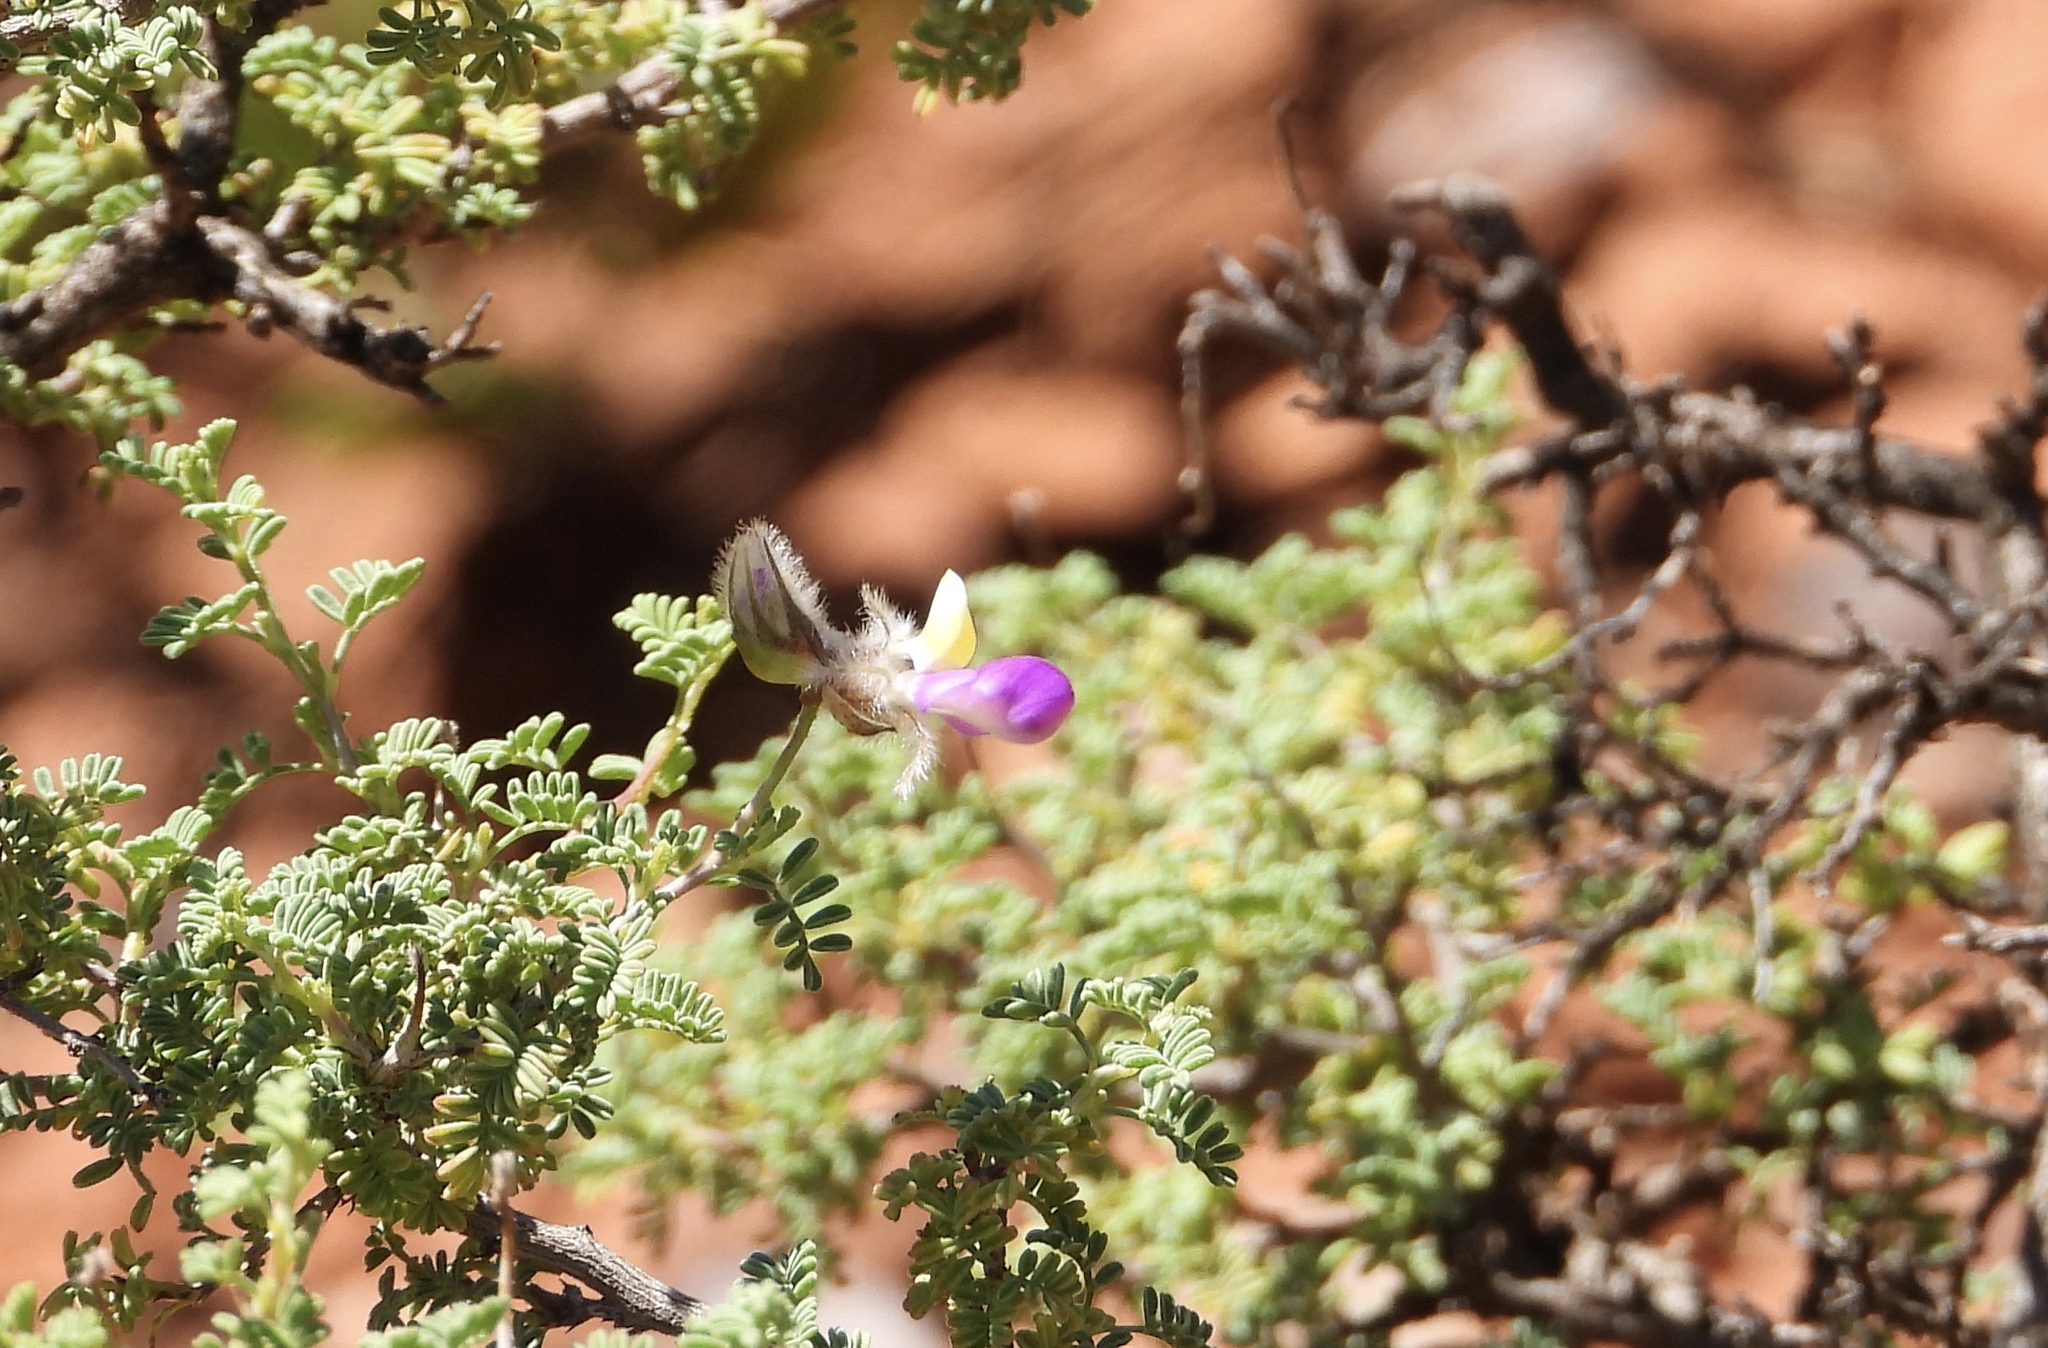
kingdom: Plantae
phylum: Tracheophyta
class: Magnoliopsida
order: Fabales
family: Fabaceae
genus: Dalea
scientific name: Dalea formosa
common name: Feather-plume dalea
